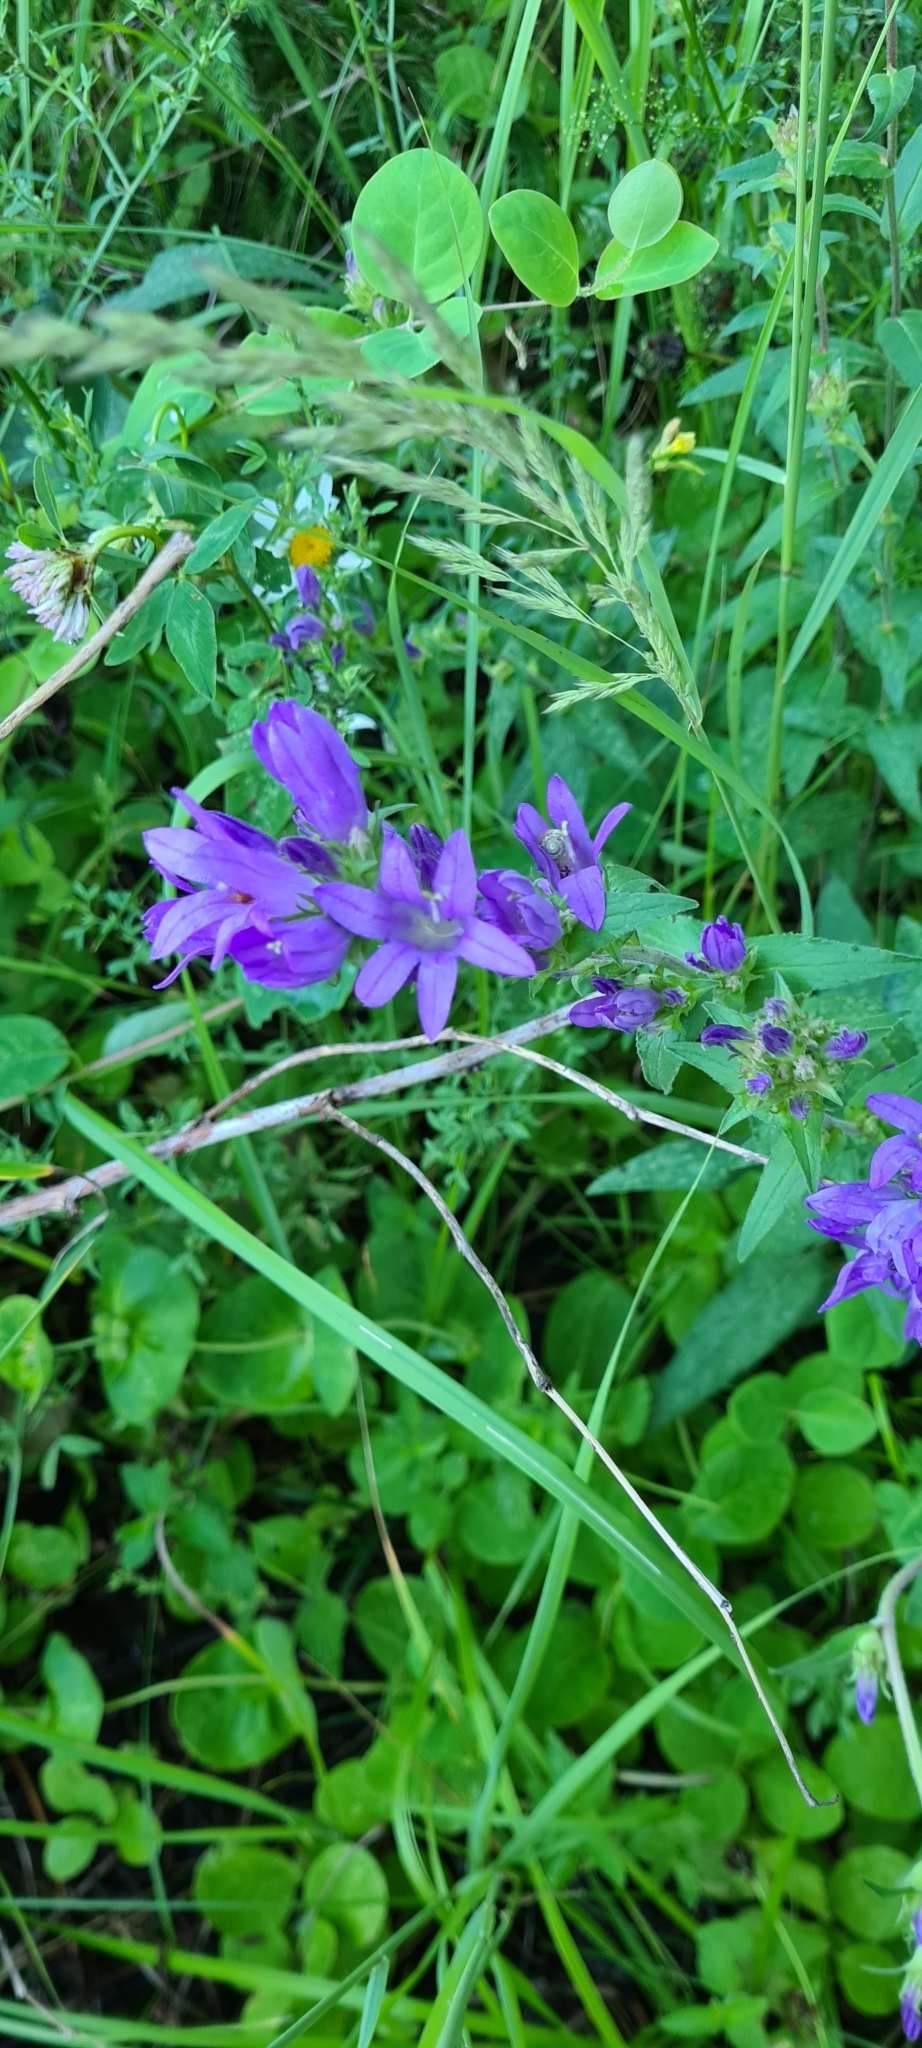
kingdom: Plantae
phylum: Tracheophyta
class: Magnoliopsida
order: Asterales
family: Campanulaceae
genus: Campanula
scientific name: Campanula glomerata
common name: Clustered bellflower
